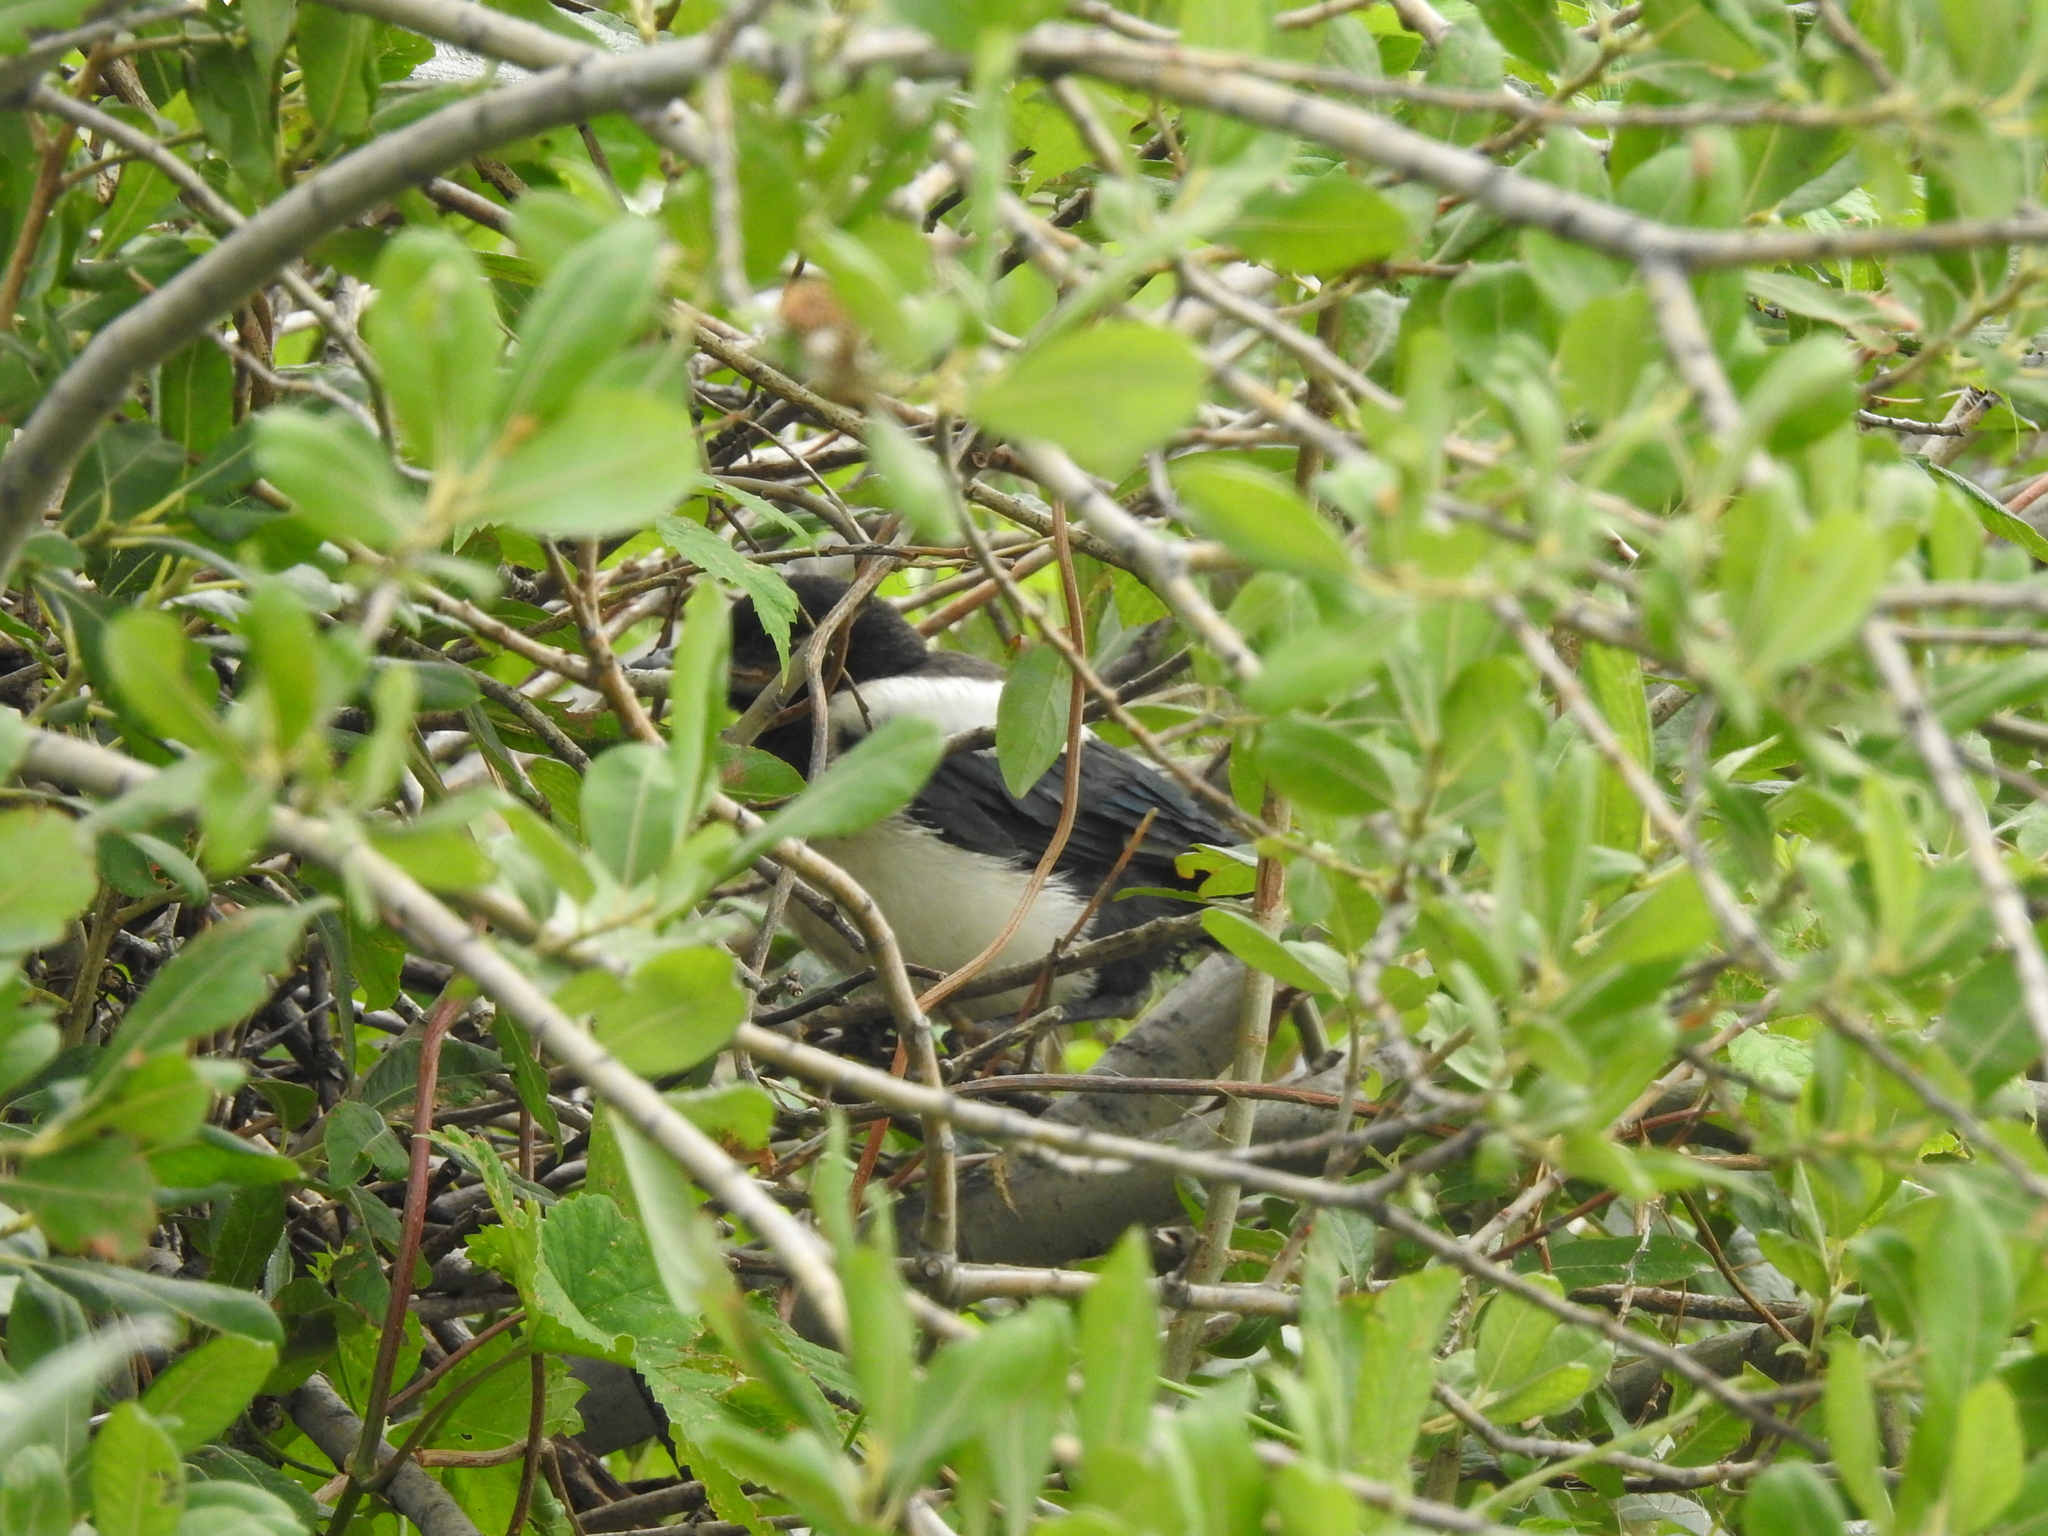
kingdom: Animalia
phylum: Chordata
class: Aves
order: Passeriformes
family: Corvidae
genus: Pica
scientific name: Pica pica
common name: Eurasian magpie
